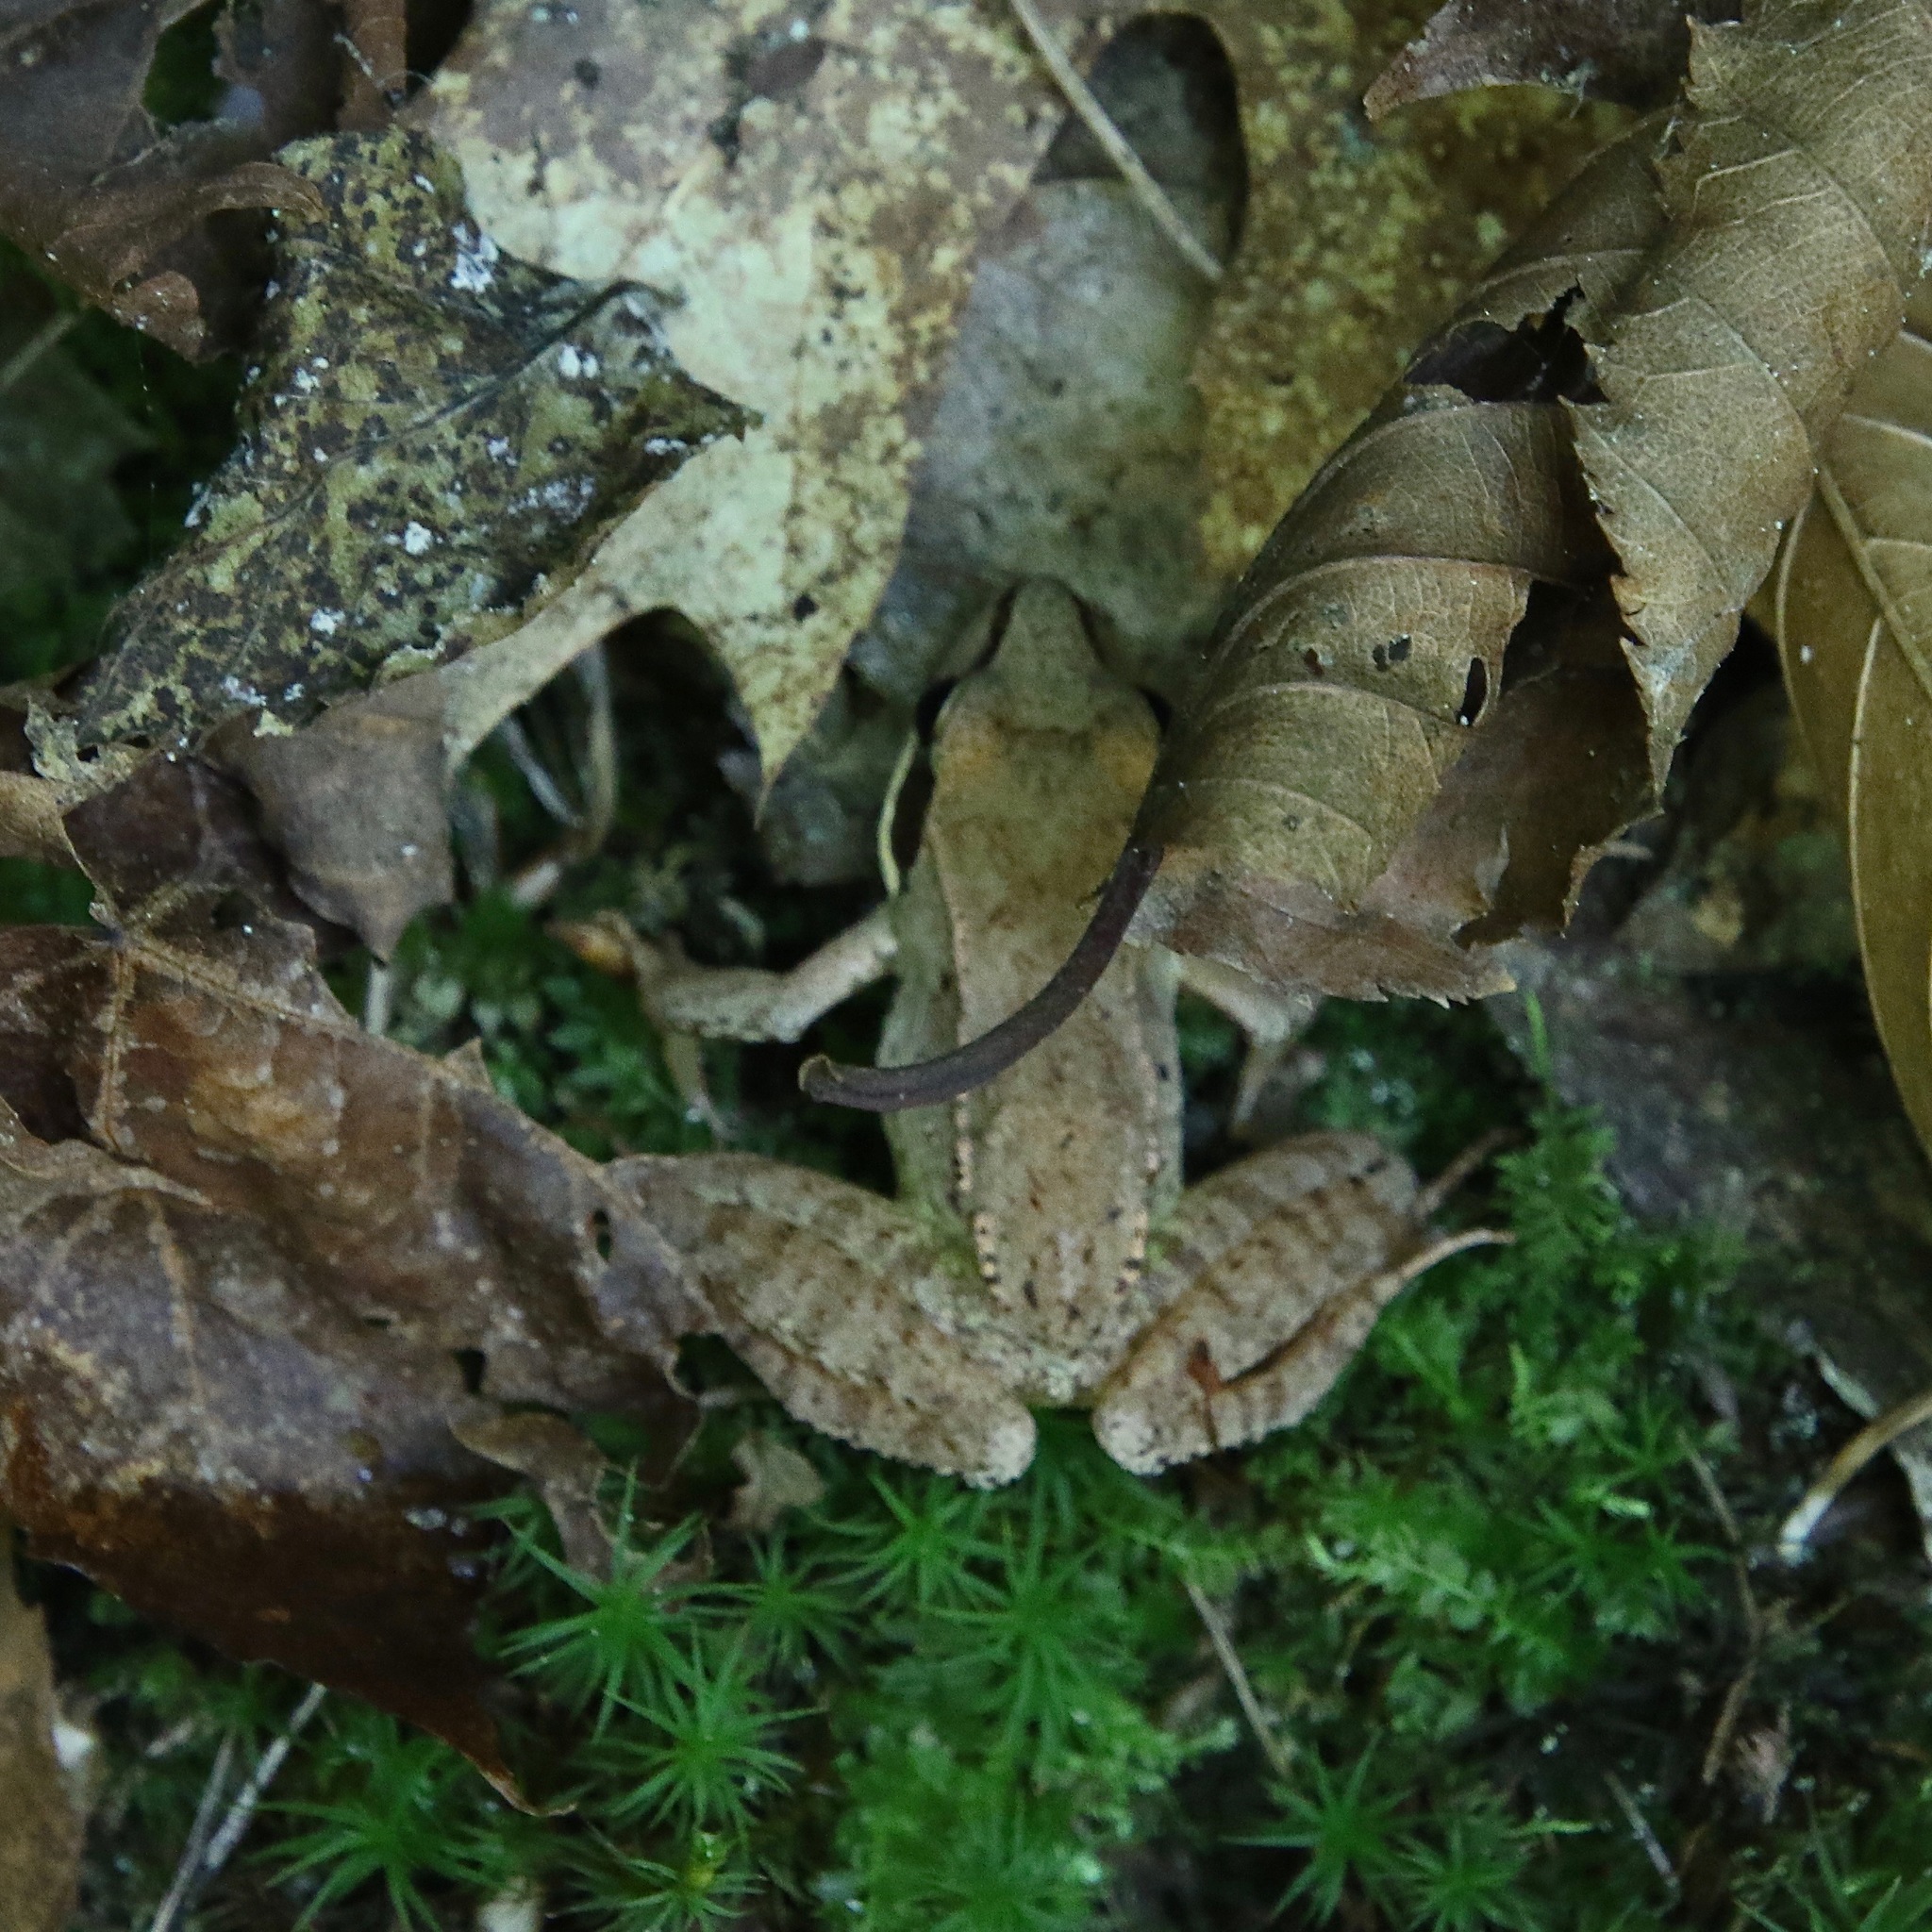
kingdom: Animalia
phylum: Chordata
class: Amphibia
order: Anura
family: Ranidae
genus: Lithobates
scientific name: Lithobates sylvaticus
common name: Wood frog
